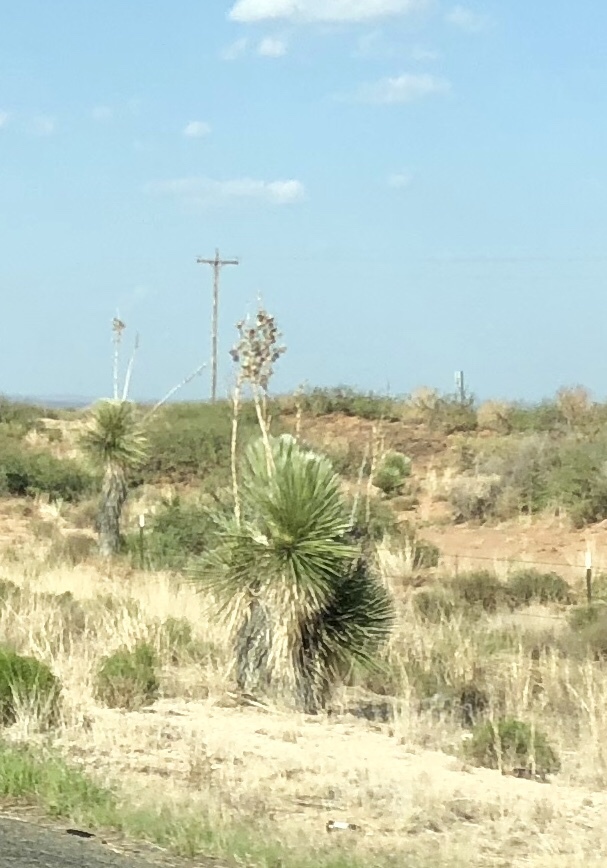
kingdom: Plantae
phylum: Tracheophyta
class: Liliopsida
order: Asparagales
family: Asparagaceae
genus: Yucca
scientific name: Yucca elata
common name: Palmella
